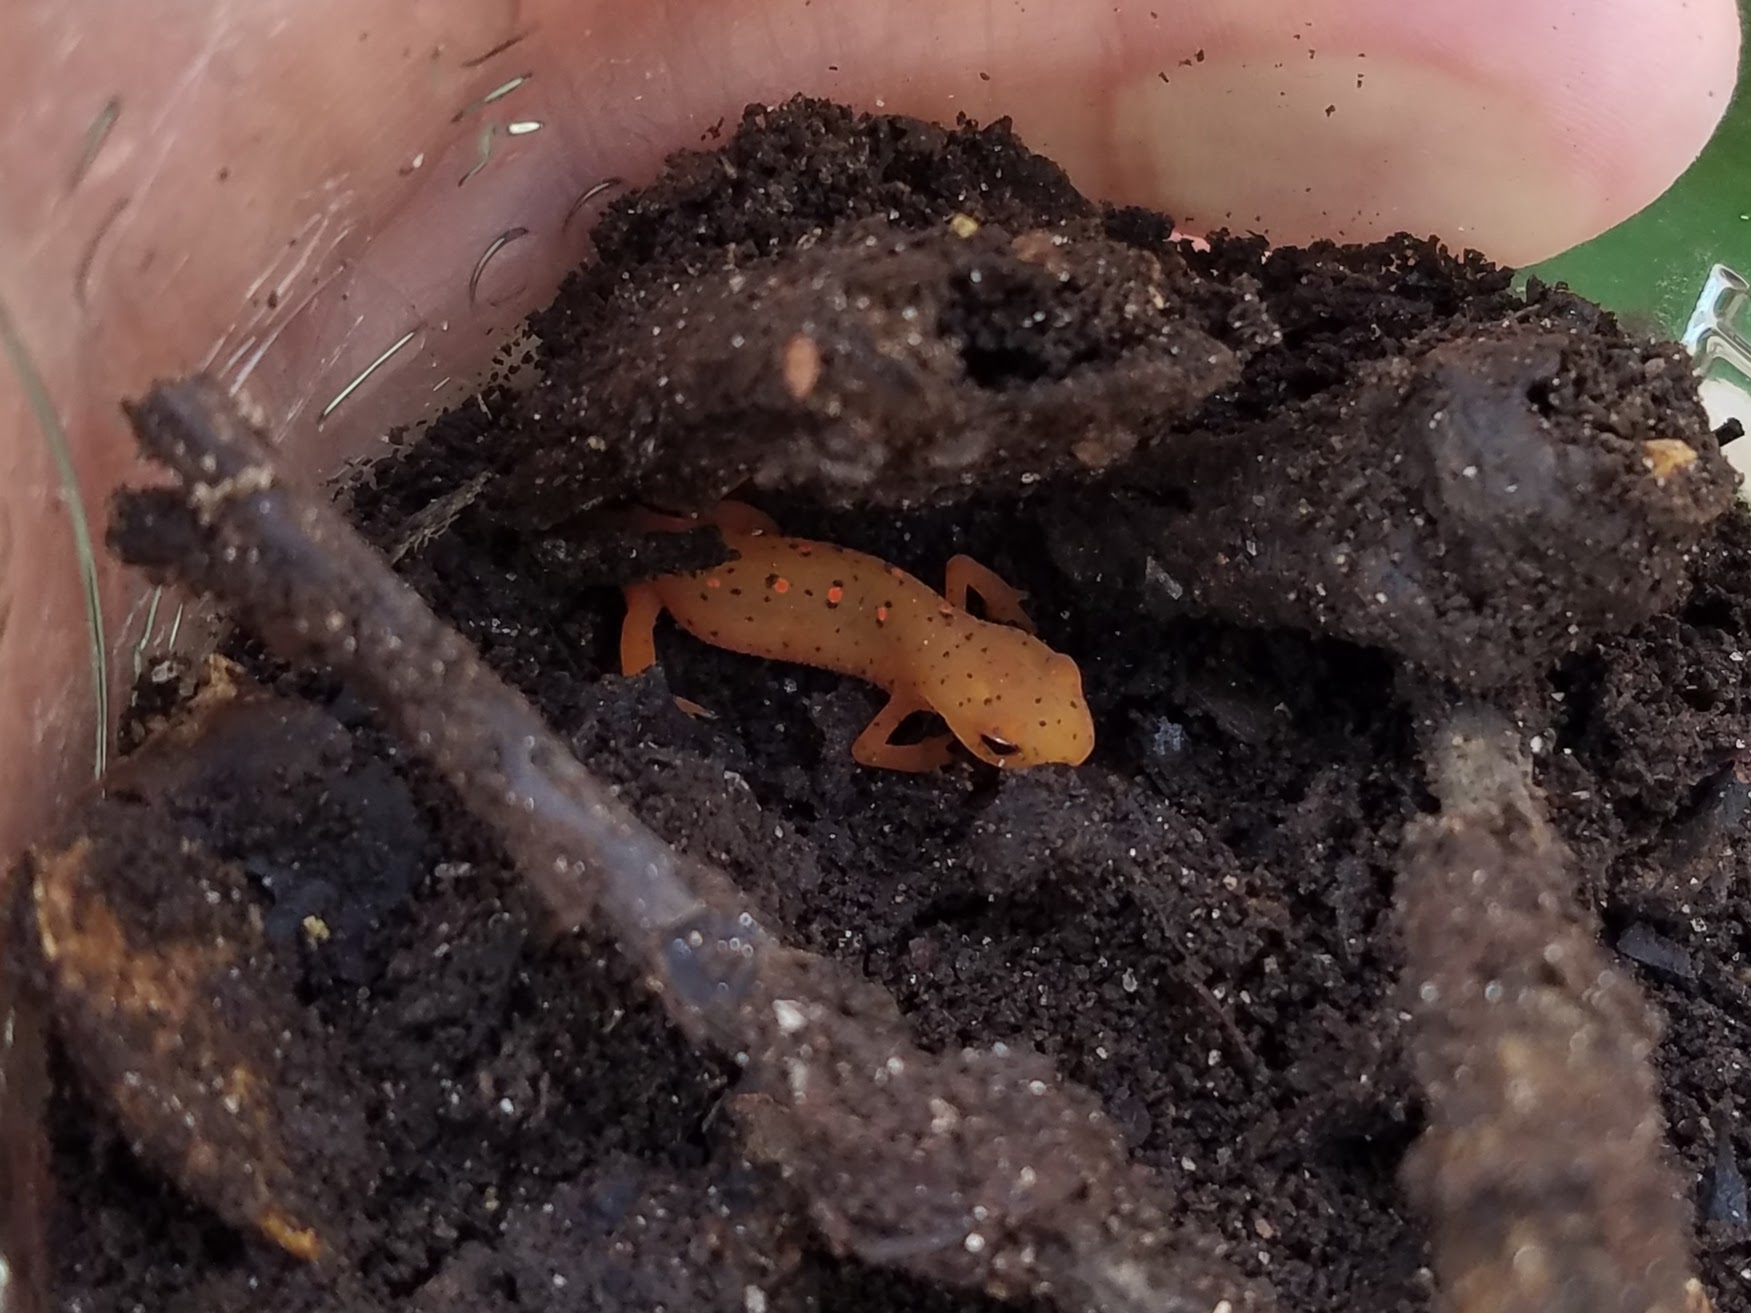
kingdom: Animalia
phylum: Chordata
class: Amphibia
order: Caudata
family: Salamandridae
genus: Notophthalmus
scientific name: Notophthalmus viridescens
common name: Eastern newt
